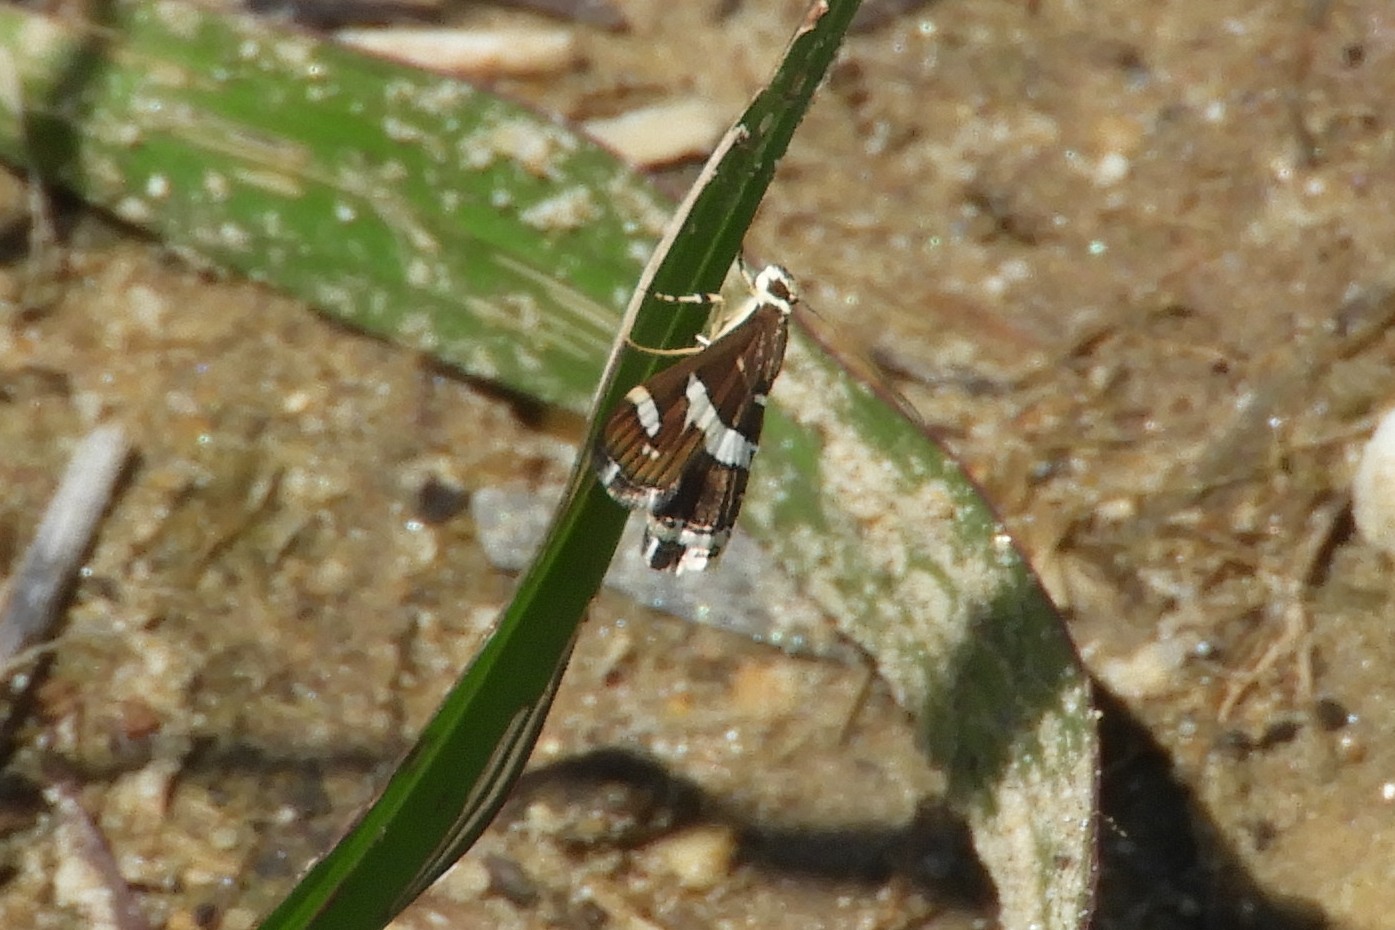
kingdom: Animalia
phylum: Arthropoda
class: Insecta
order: Lepidoptera
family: Crambidae
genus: Spoladea
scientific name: Spoladea recurvalis
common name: Beet webworm moth
